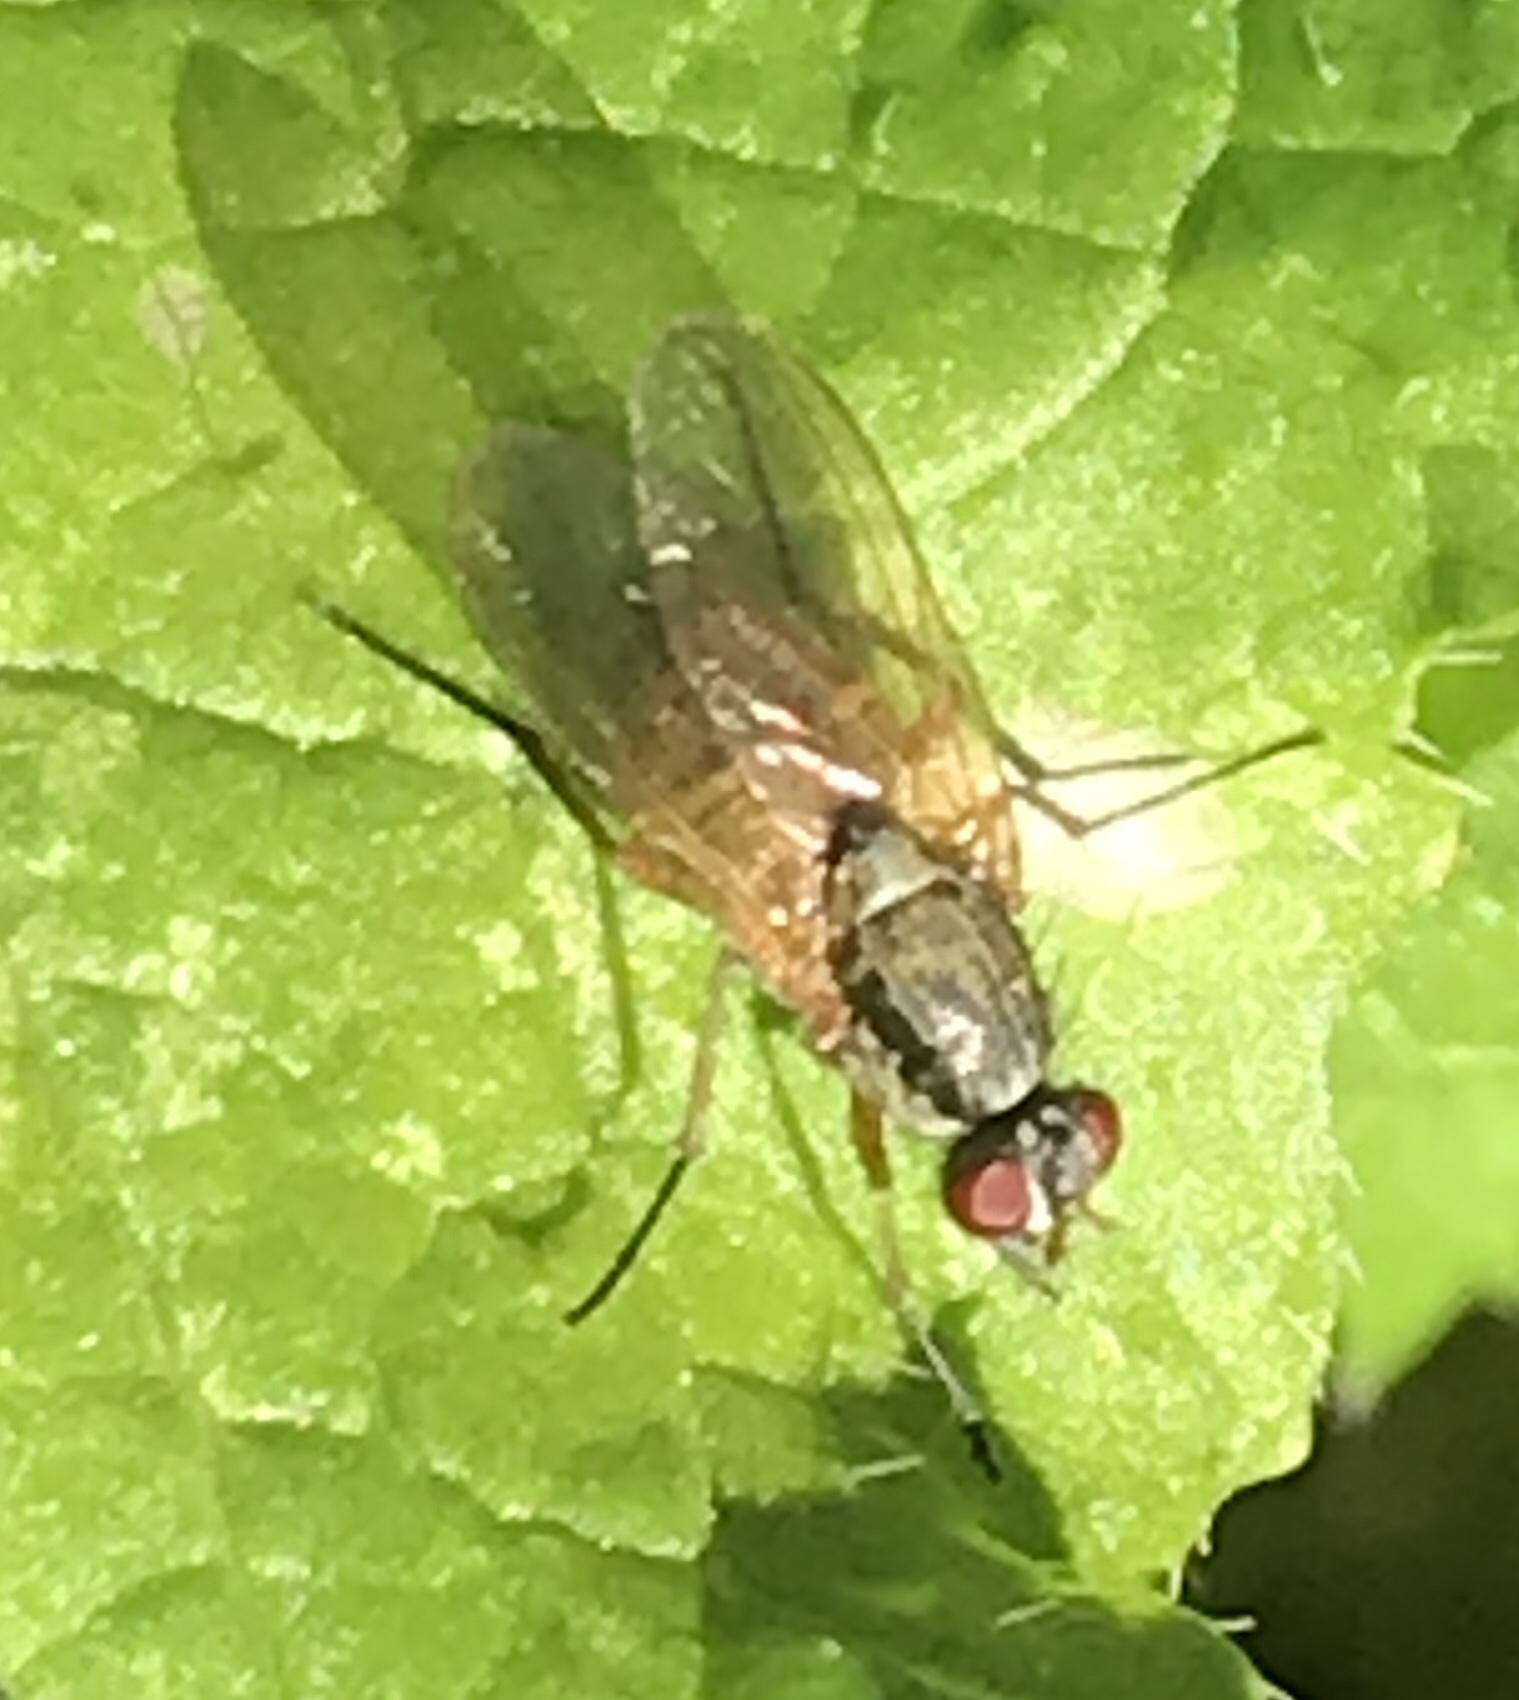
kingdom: Animalia
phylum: Arthropoda
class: Insecta
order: Diptera
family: Anthomyiidae
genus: Eutrichota
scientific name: Eutrichota
